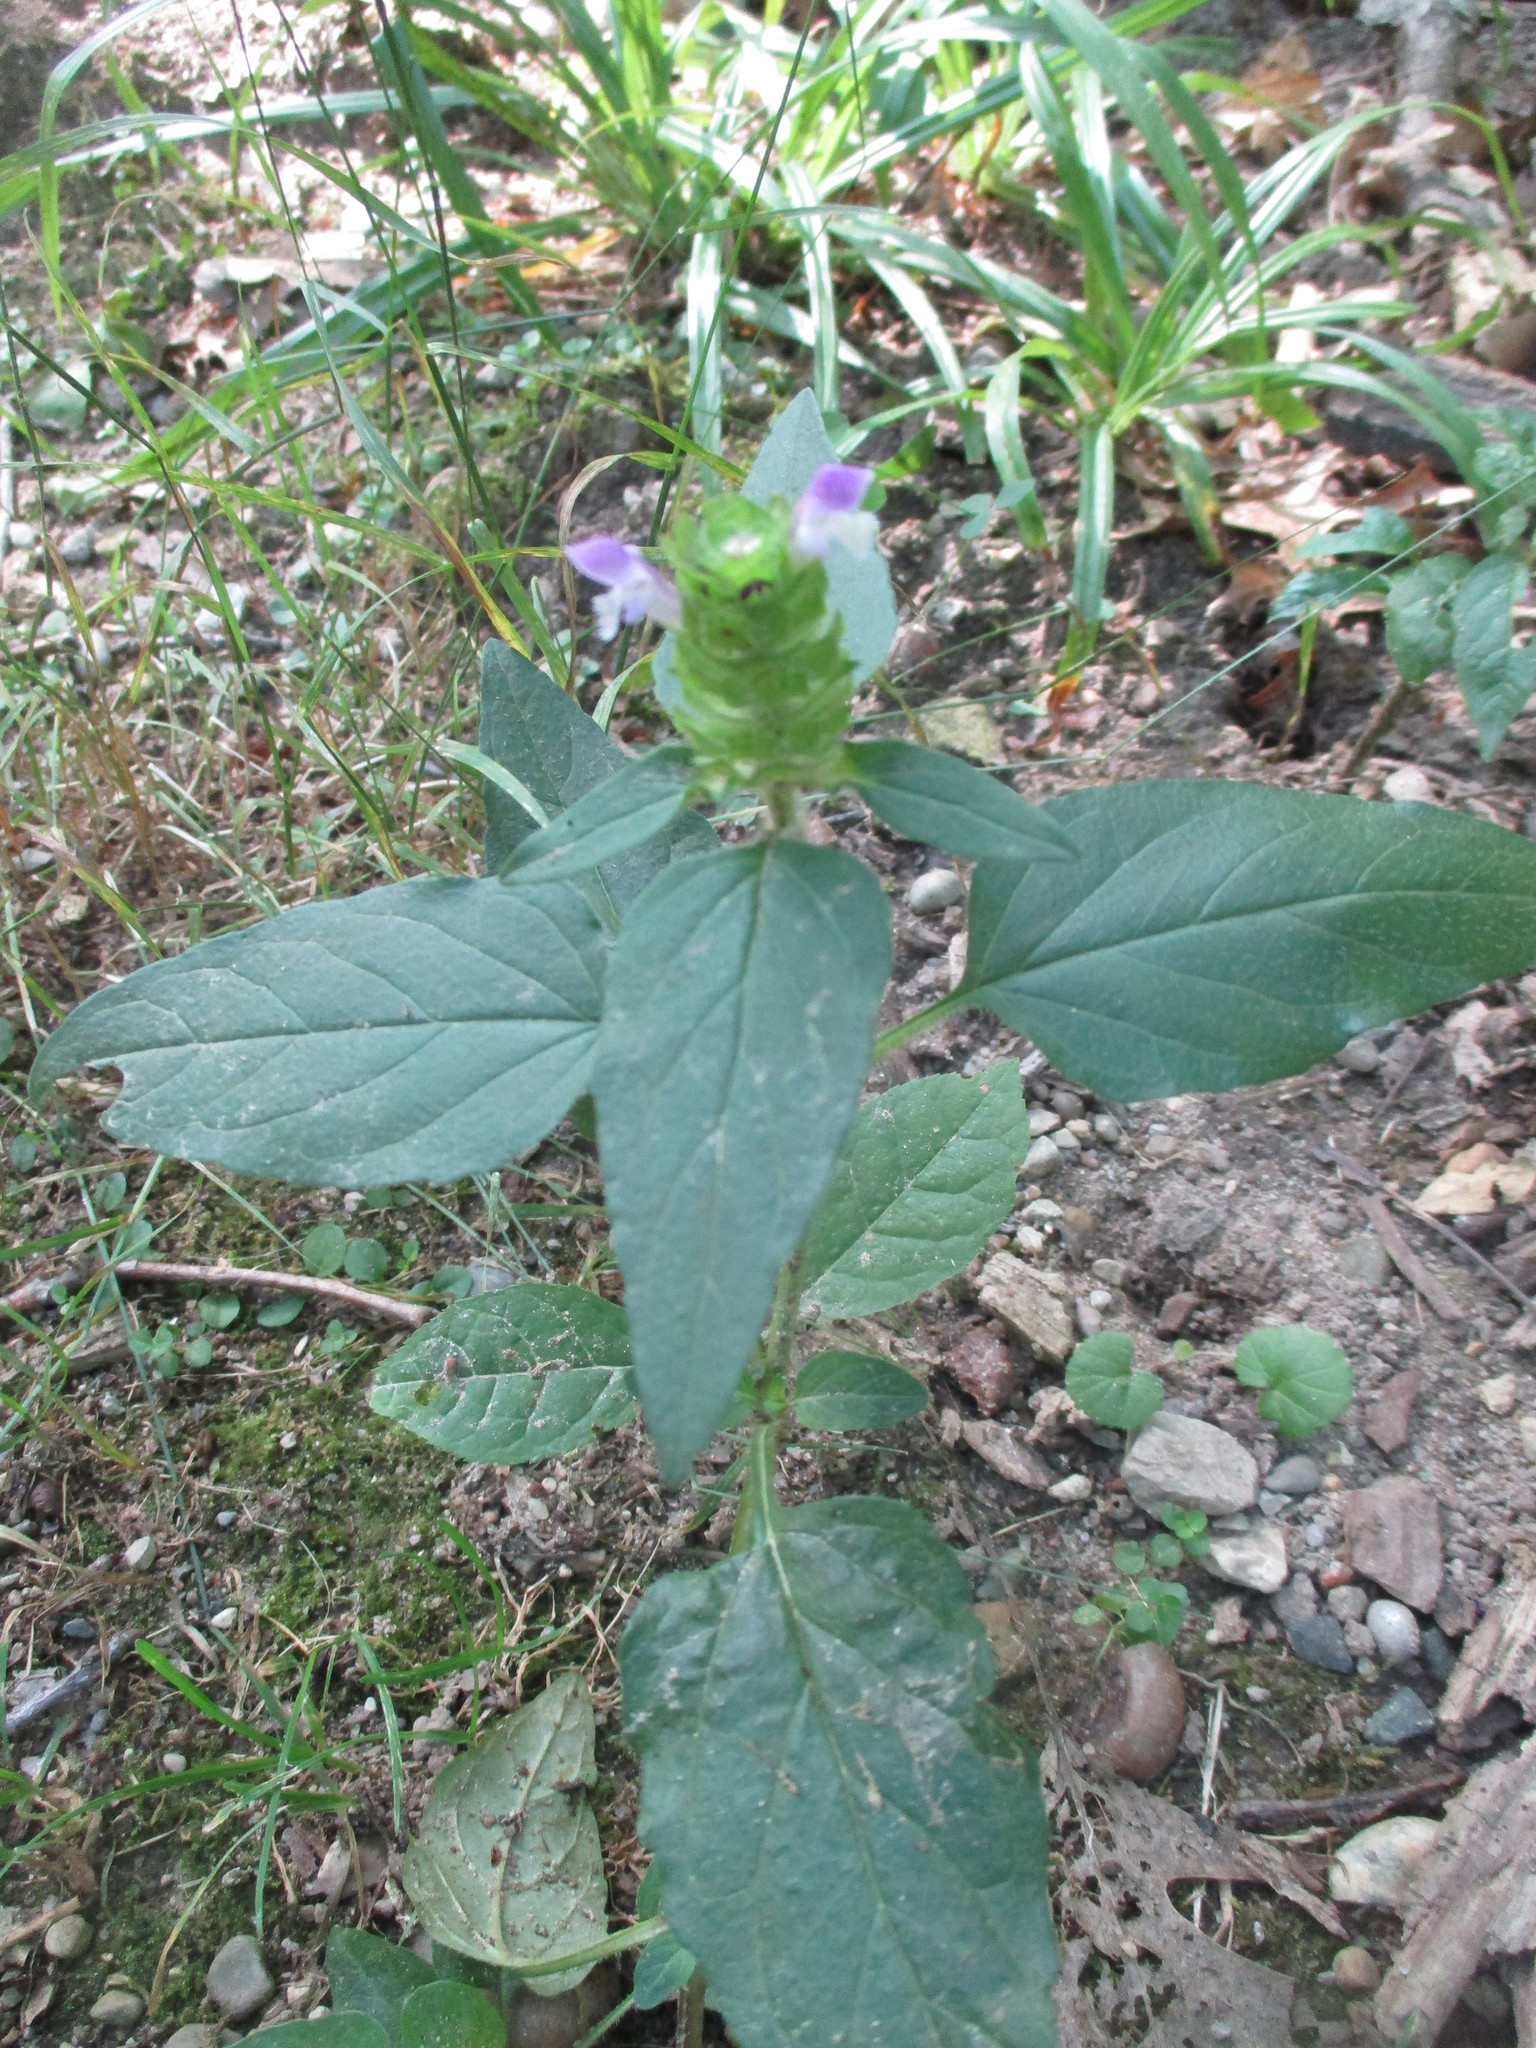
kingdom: Plantae
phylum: Tracheophyta
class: Magnoliopsida
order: Lamiales
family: Lamiaceae
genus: Prunella
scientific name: Prunella vulgaris
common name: Heal-all
